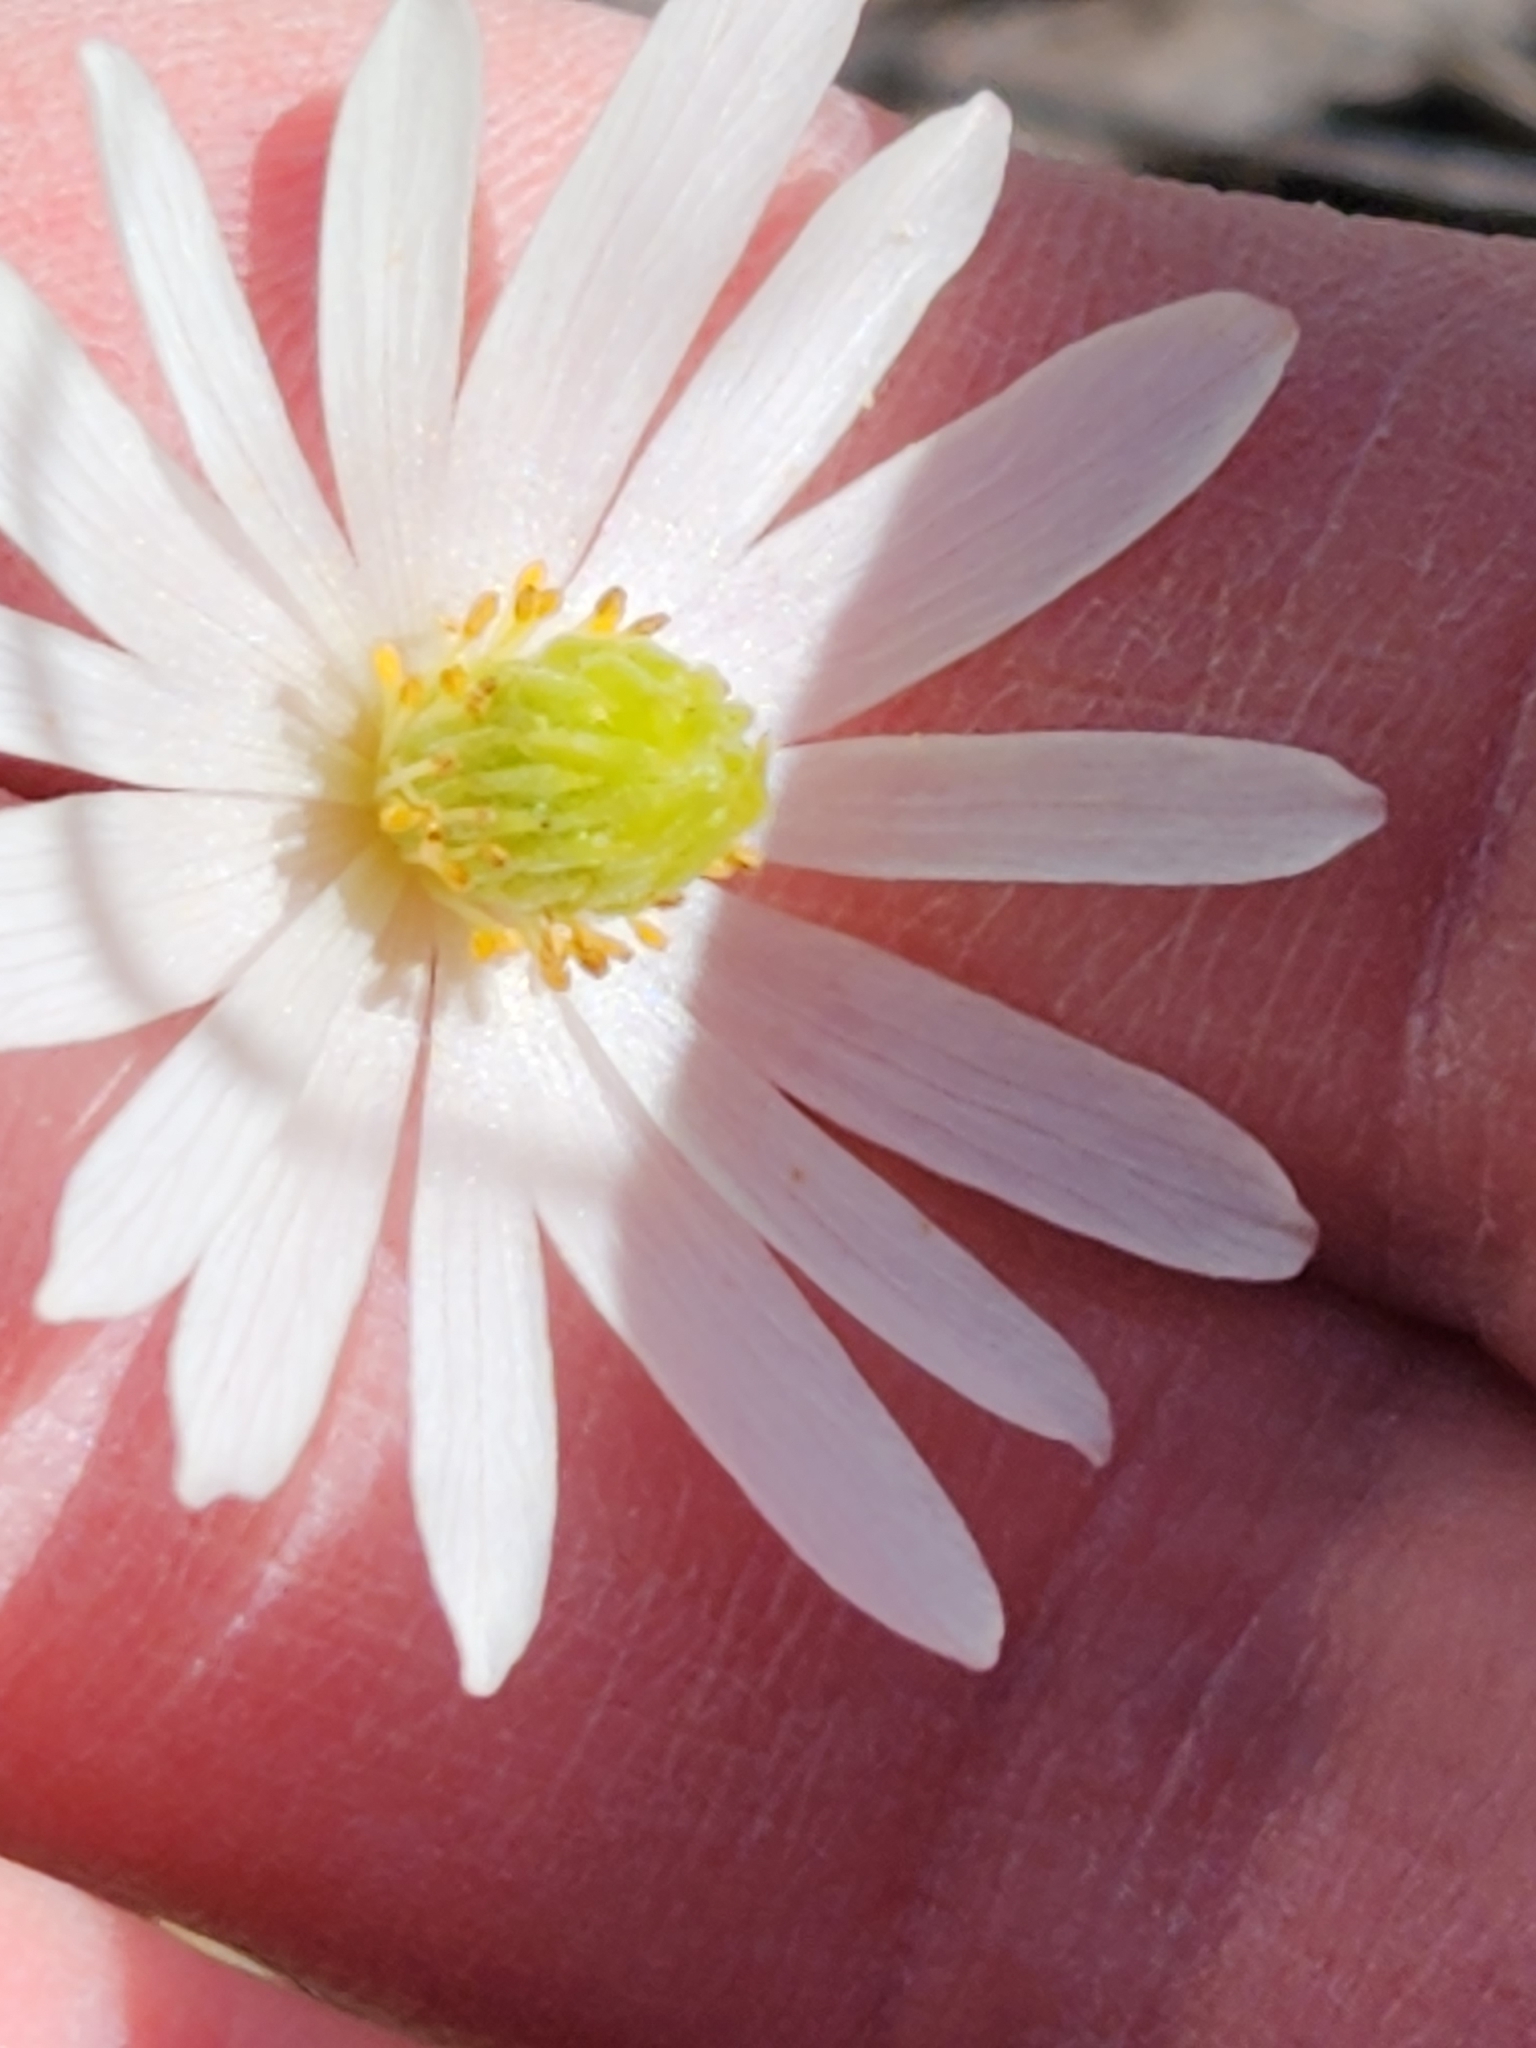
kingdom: Plantae
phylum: Tracheophyta
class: Magnoliopsida
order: Ranunculales
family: Ranunculaceae
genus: Anemone
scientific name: Anemone edwardsiana
